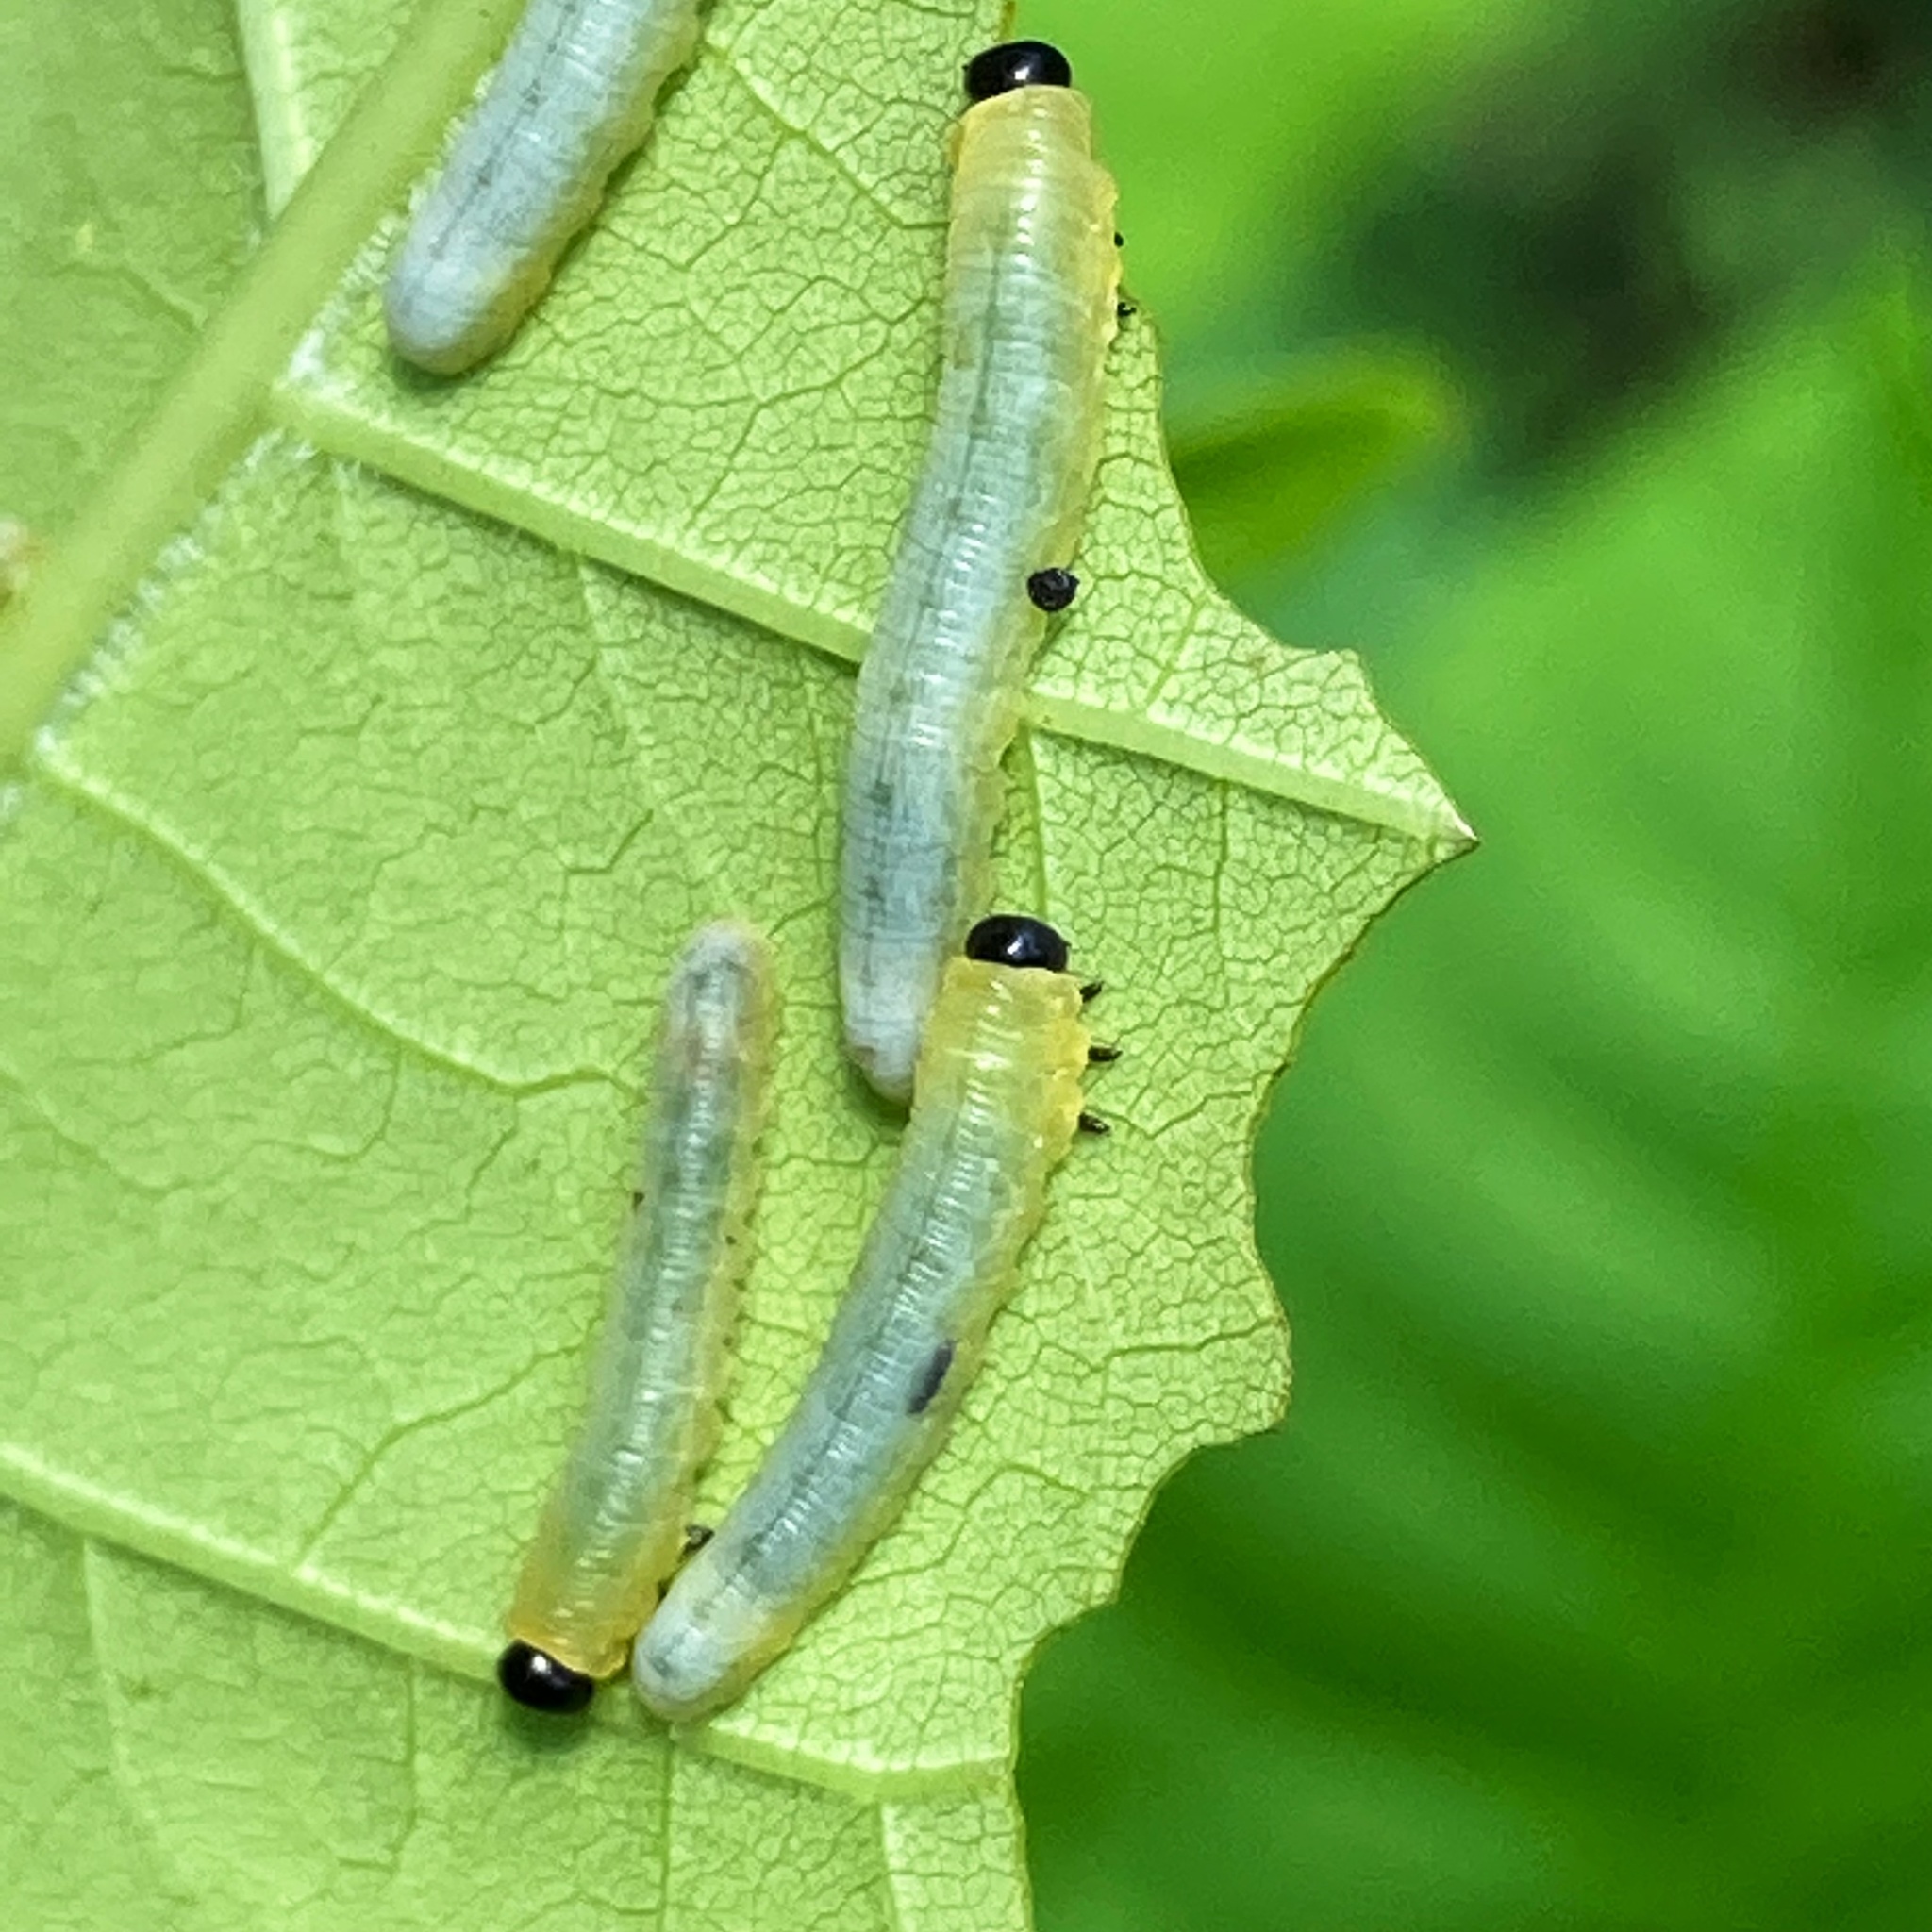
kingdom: Animalia
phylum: Arthropoda
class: Insecta
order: Hymenoptera
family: Tenthredinidae
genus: Tethida
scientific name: Tethida barda
